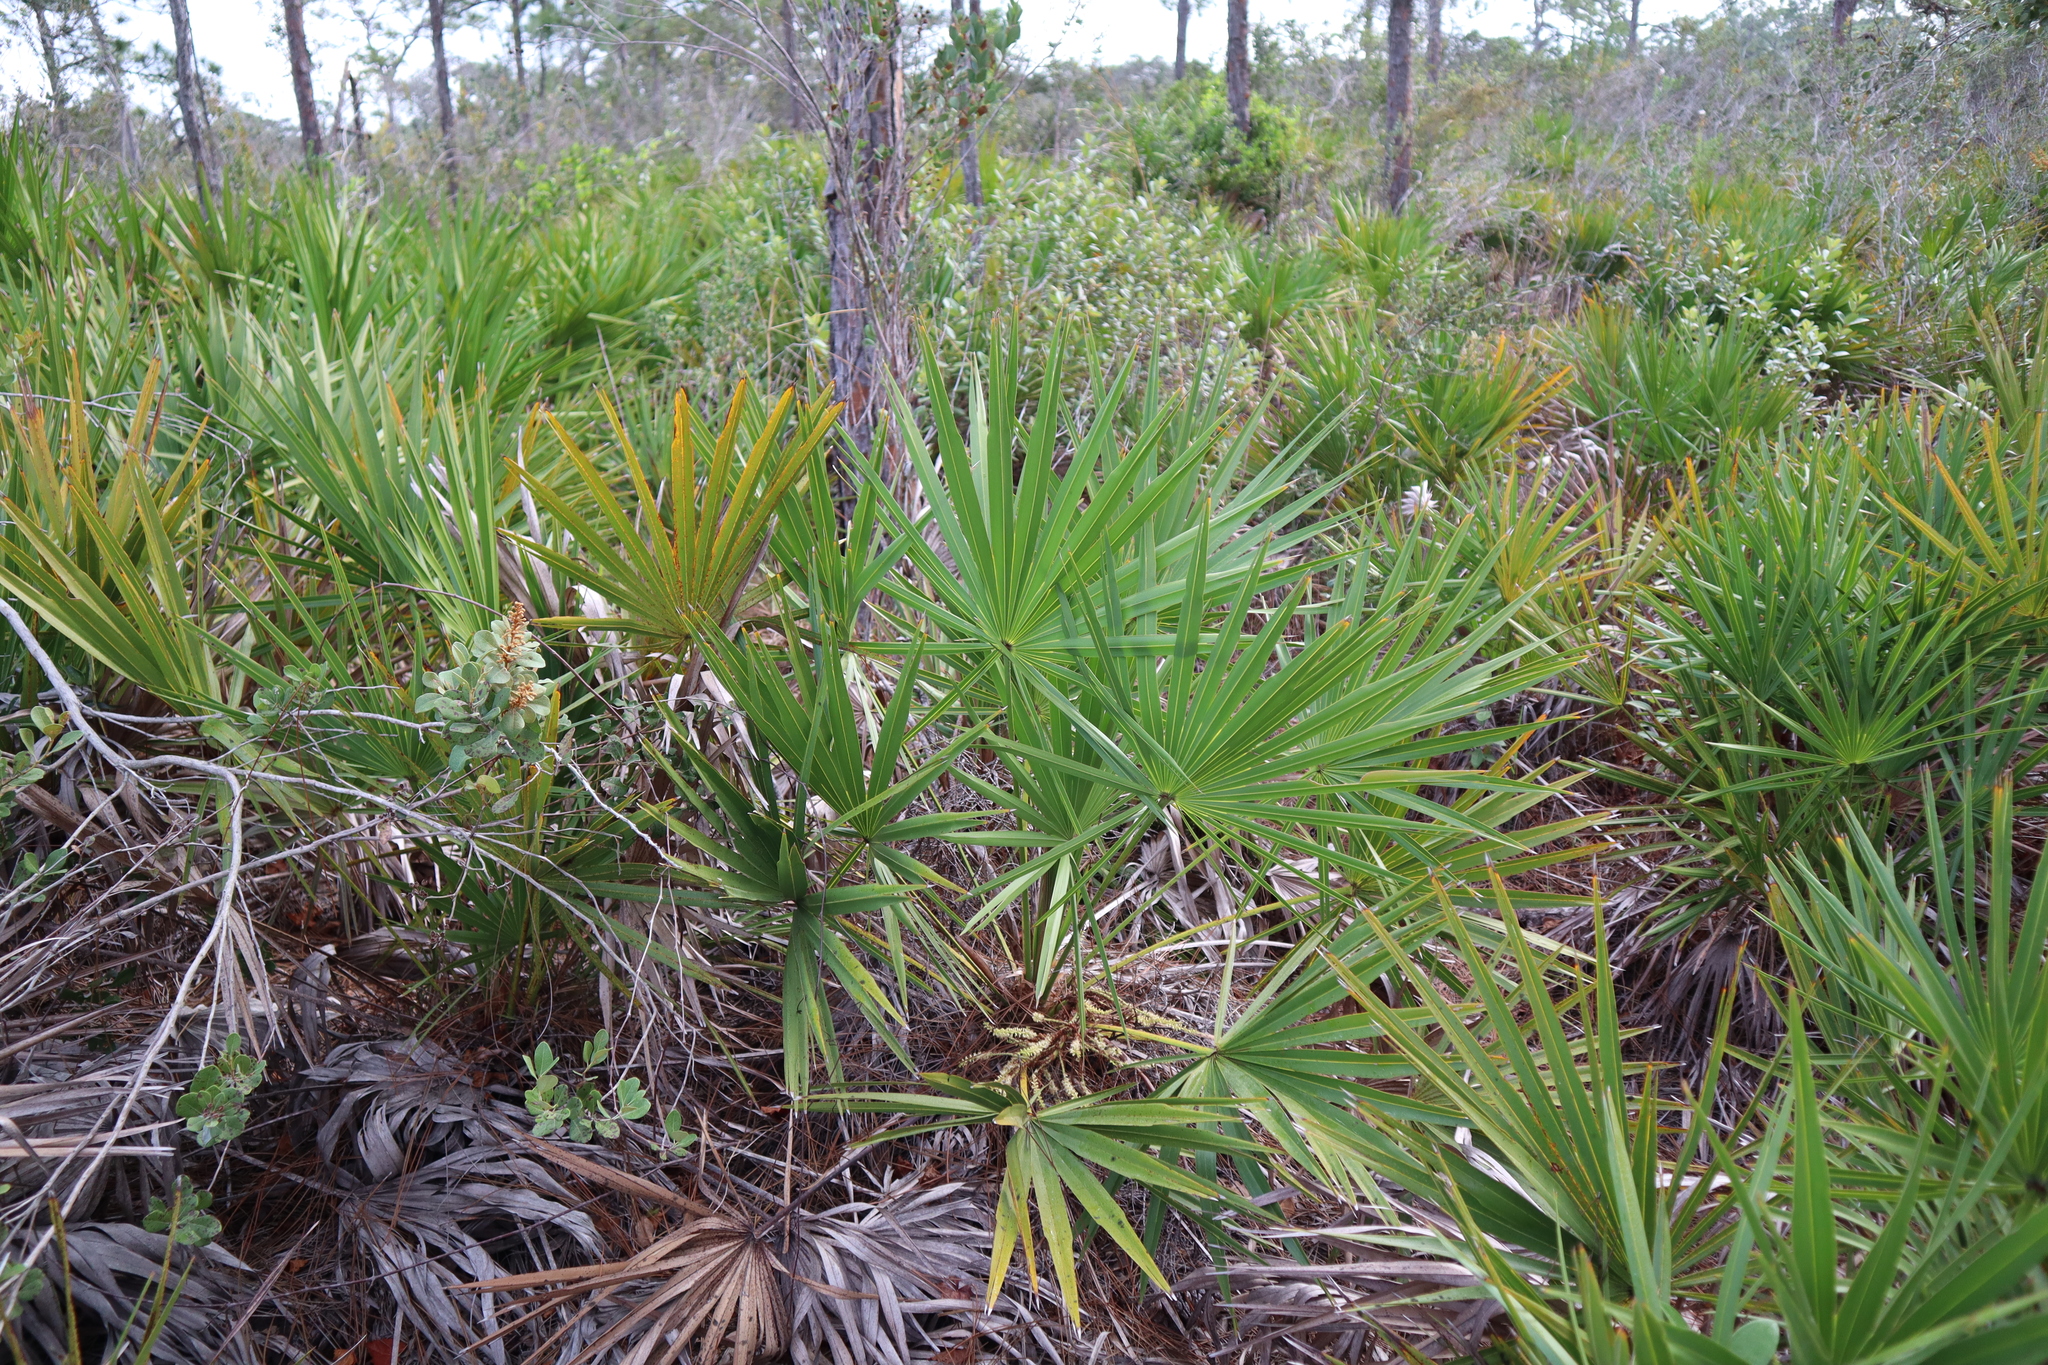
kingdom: Plantae
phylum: Tracheophyta
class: Liliopsida
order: Arecales
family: Arecaceae
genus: Serenoa
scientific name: Serenoa repens
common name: Saw-palmetto
